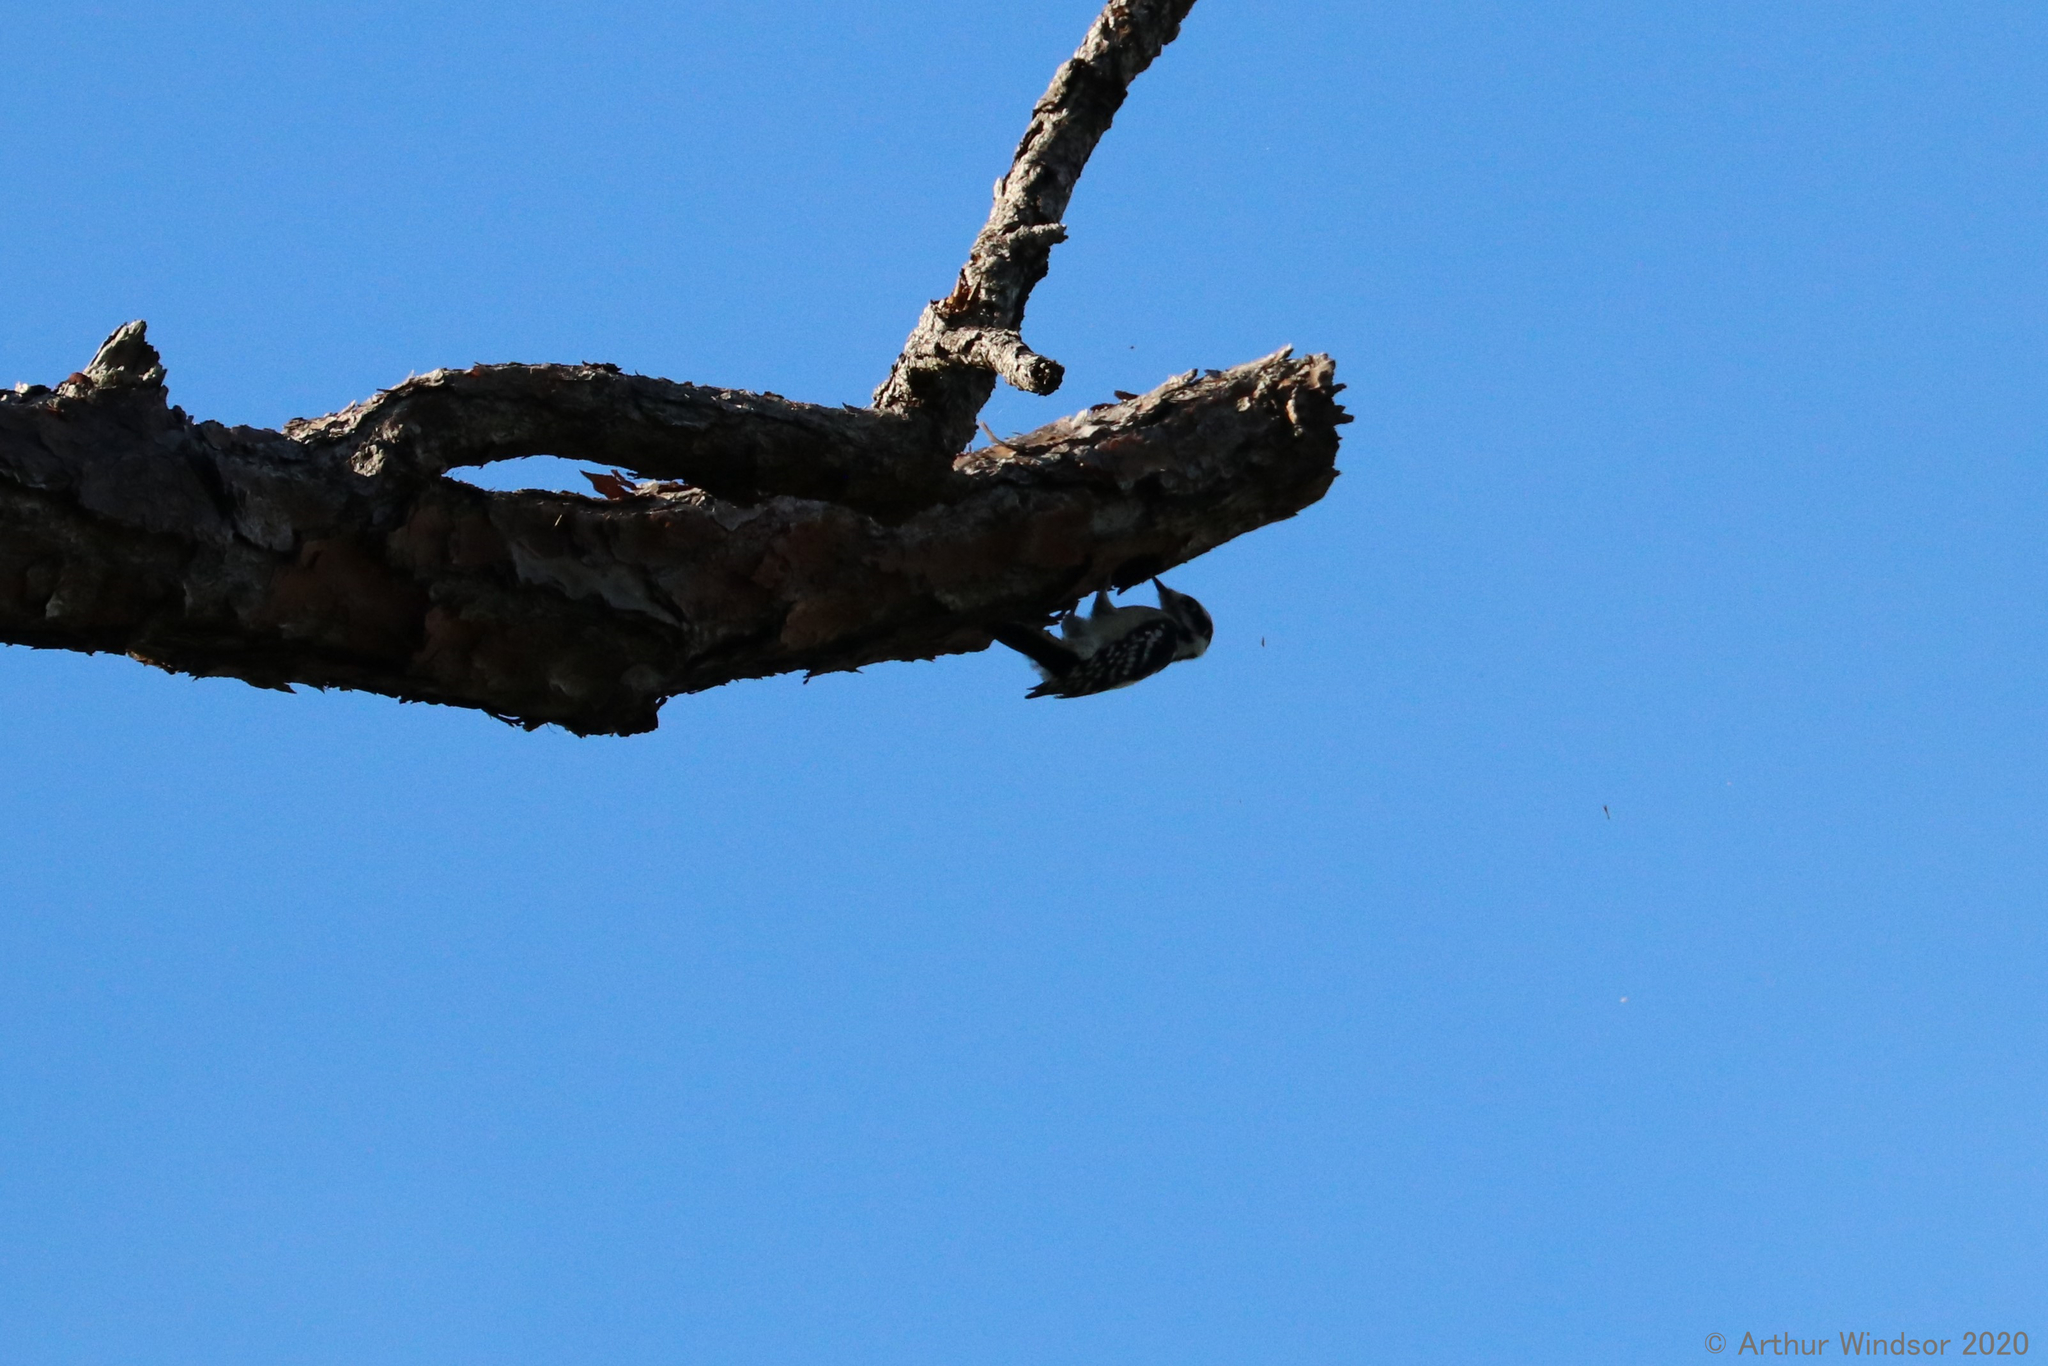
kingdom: Animalia
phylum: Chordata
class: Aves
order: Piciformes
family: Picidae
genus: Dryobates
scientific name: Dryobates pubescens
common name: Downy woodpecker
